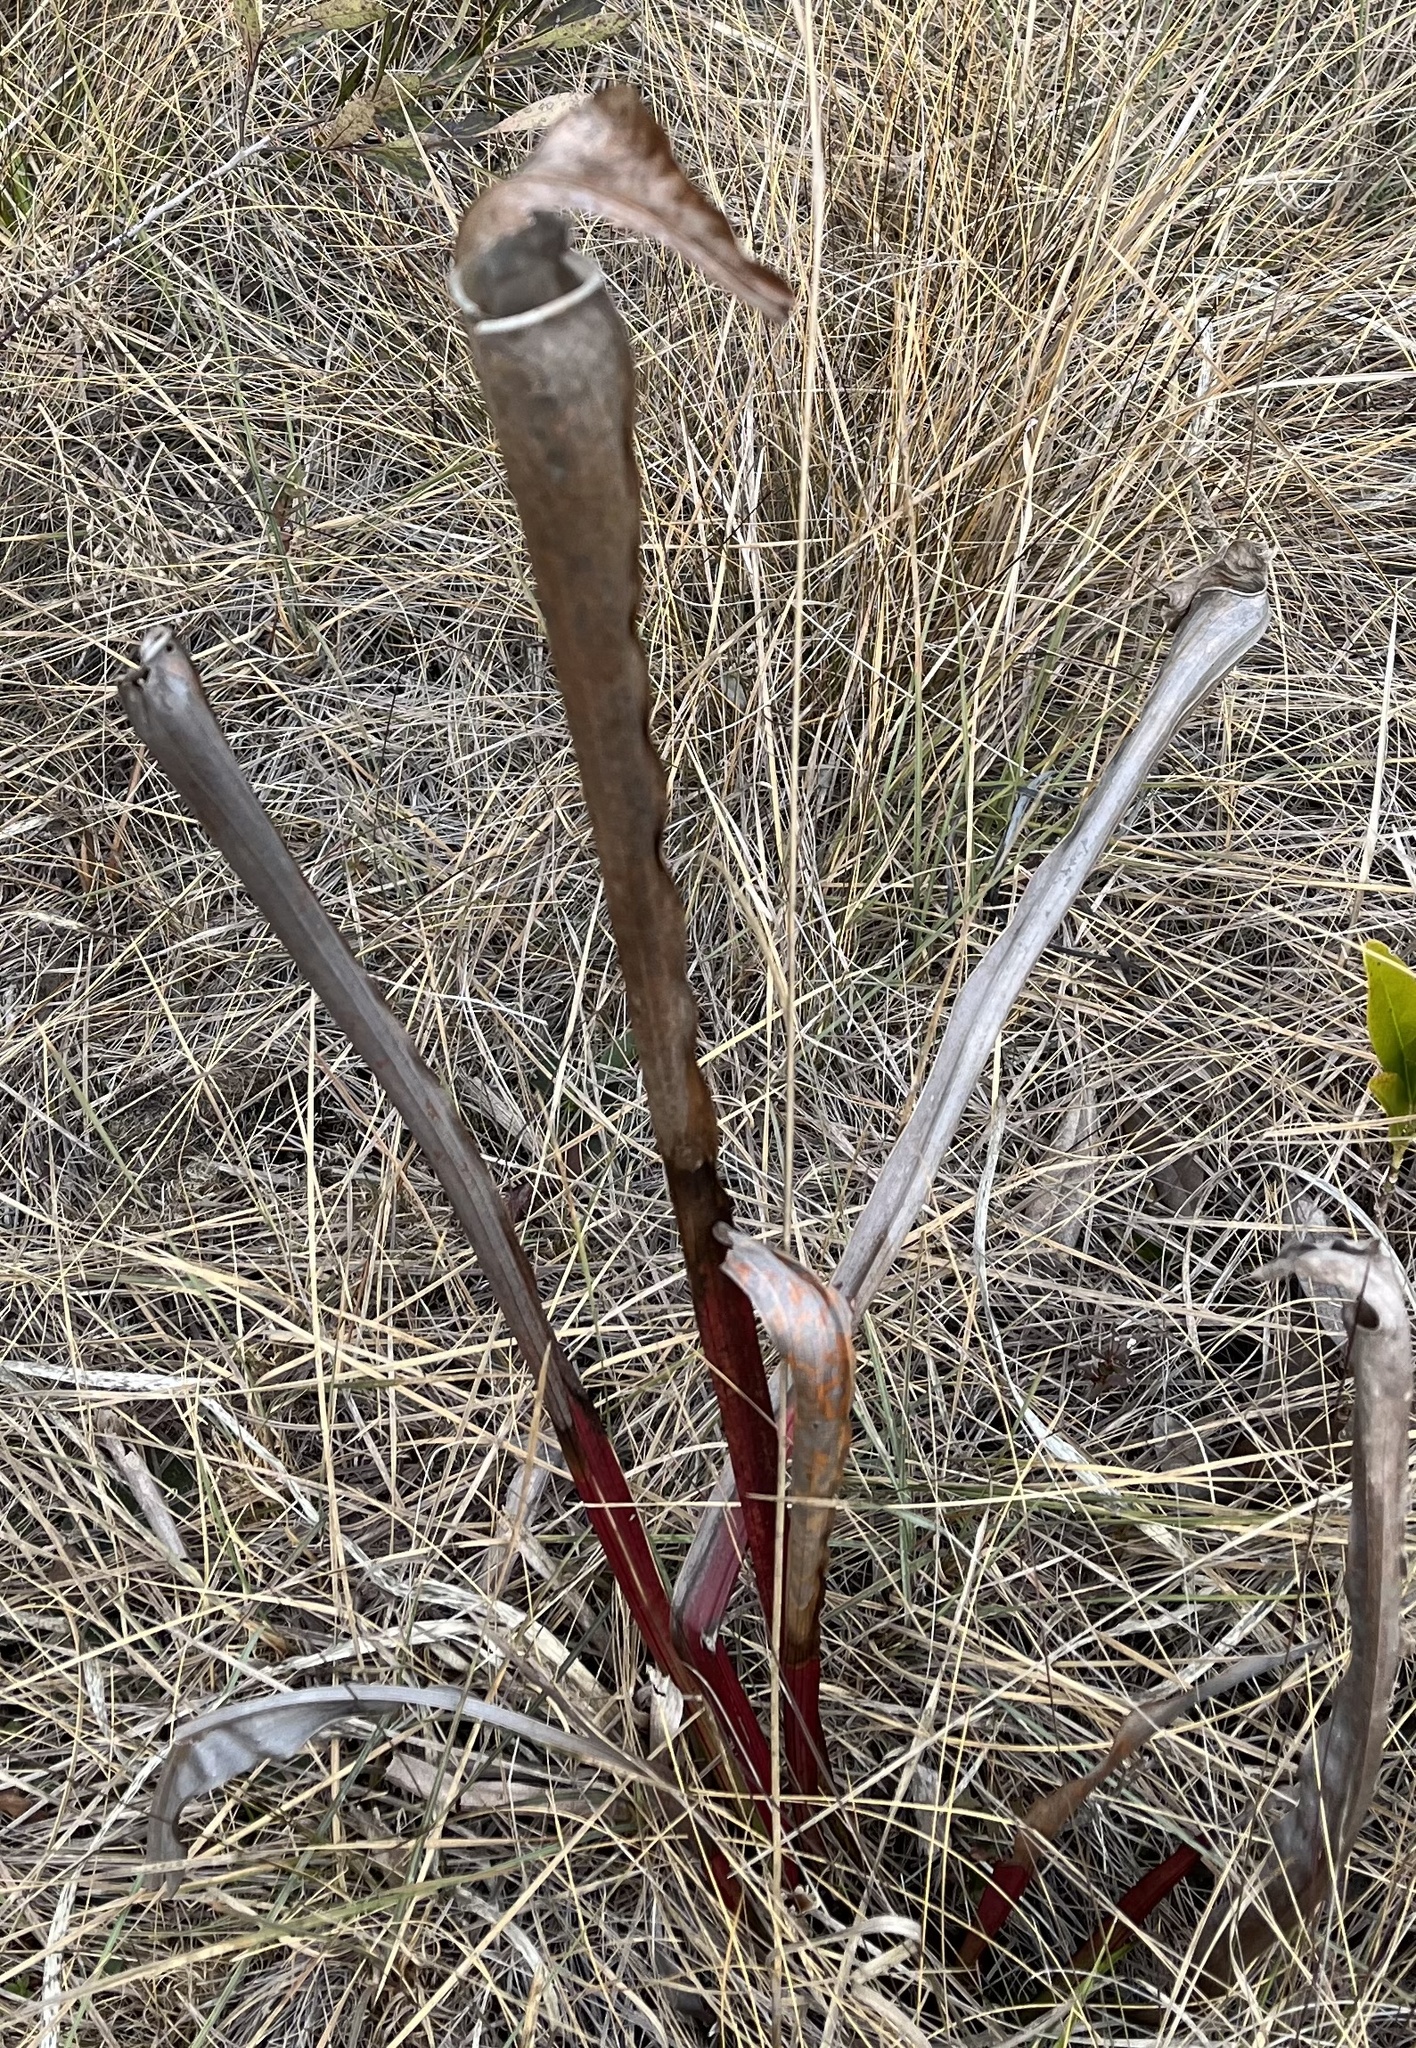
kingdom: Plantae
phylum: Tracheophyta
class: Magnoliopsida
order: Ericales
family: Sarraceniaceae
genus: Sarracenia
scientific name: Sarracenia alata
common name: Yellow trumpets
